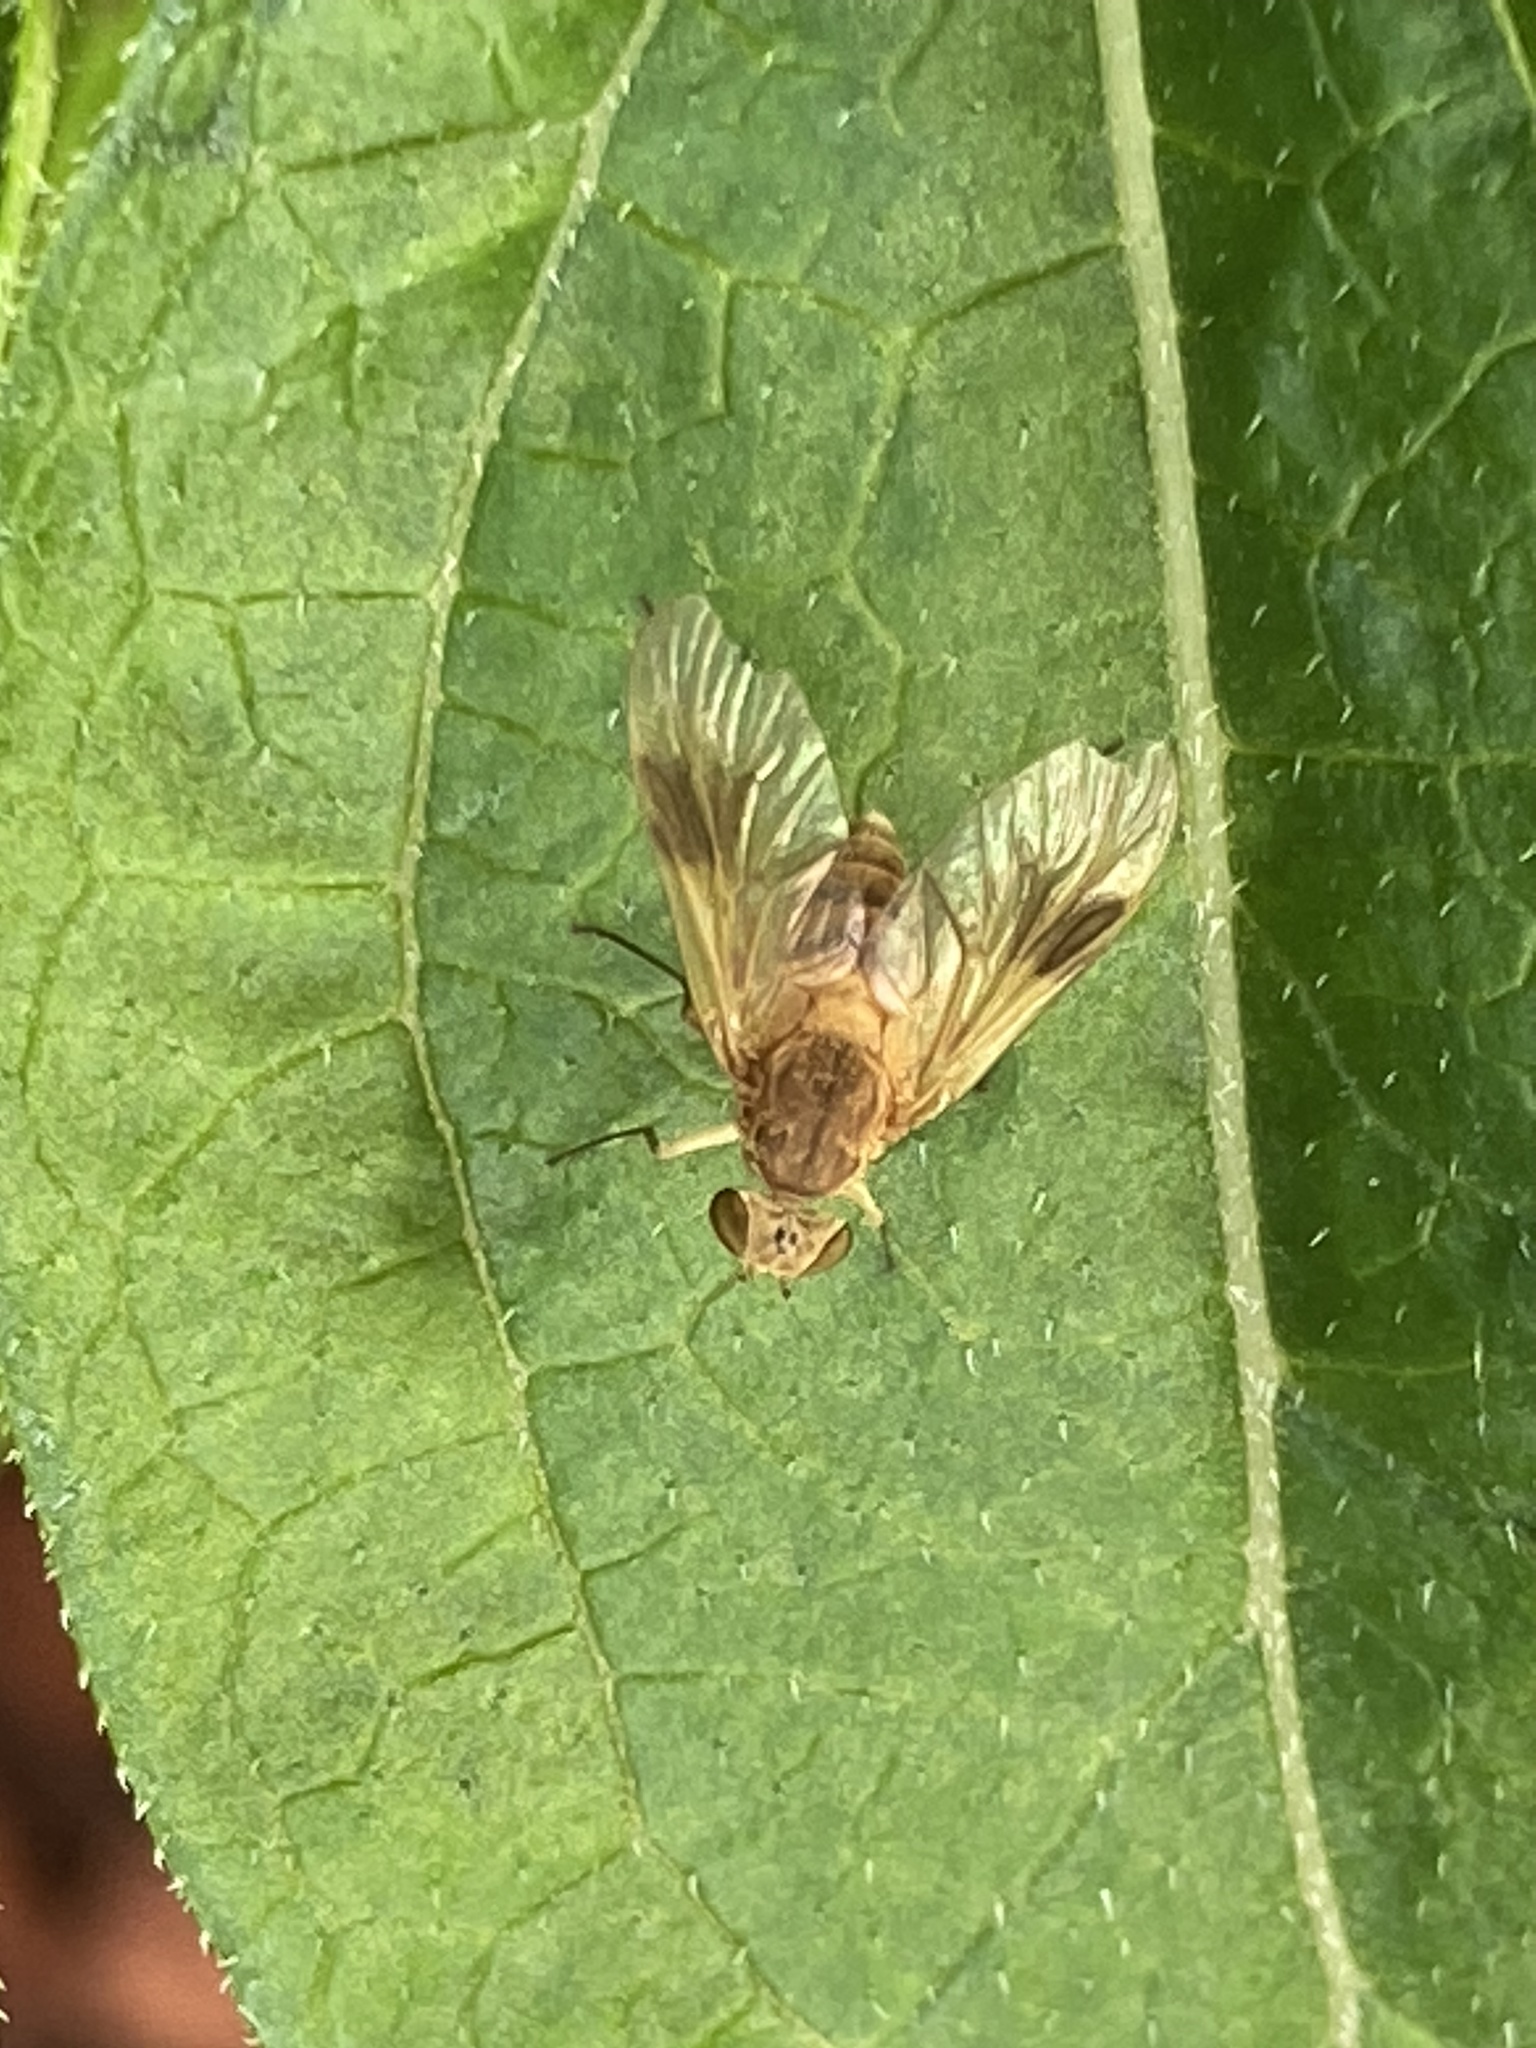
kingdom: Animalia
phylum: Arthropoda
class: Insecta
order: Diptera
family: Rhagionidae
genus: Chrysopilus
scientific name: Chrysopilus quadratus
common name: Quadrate snipe fly
